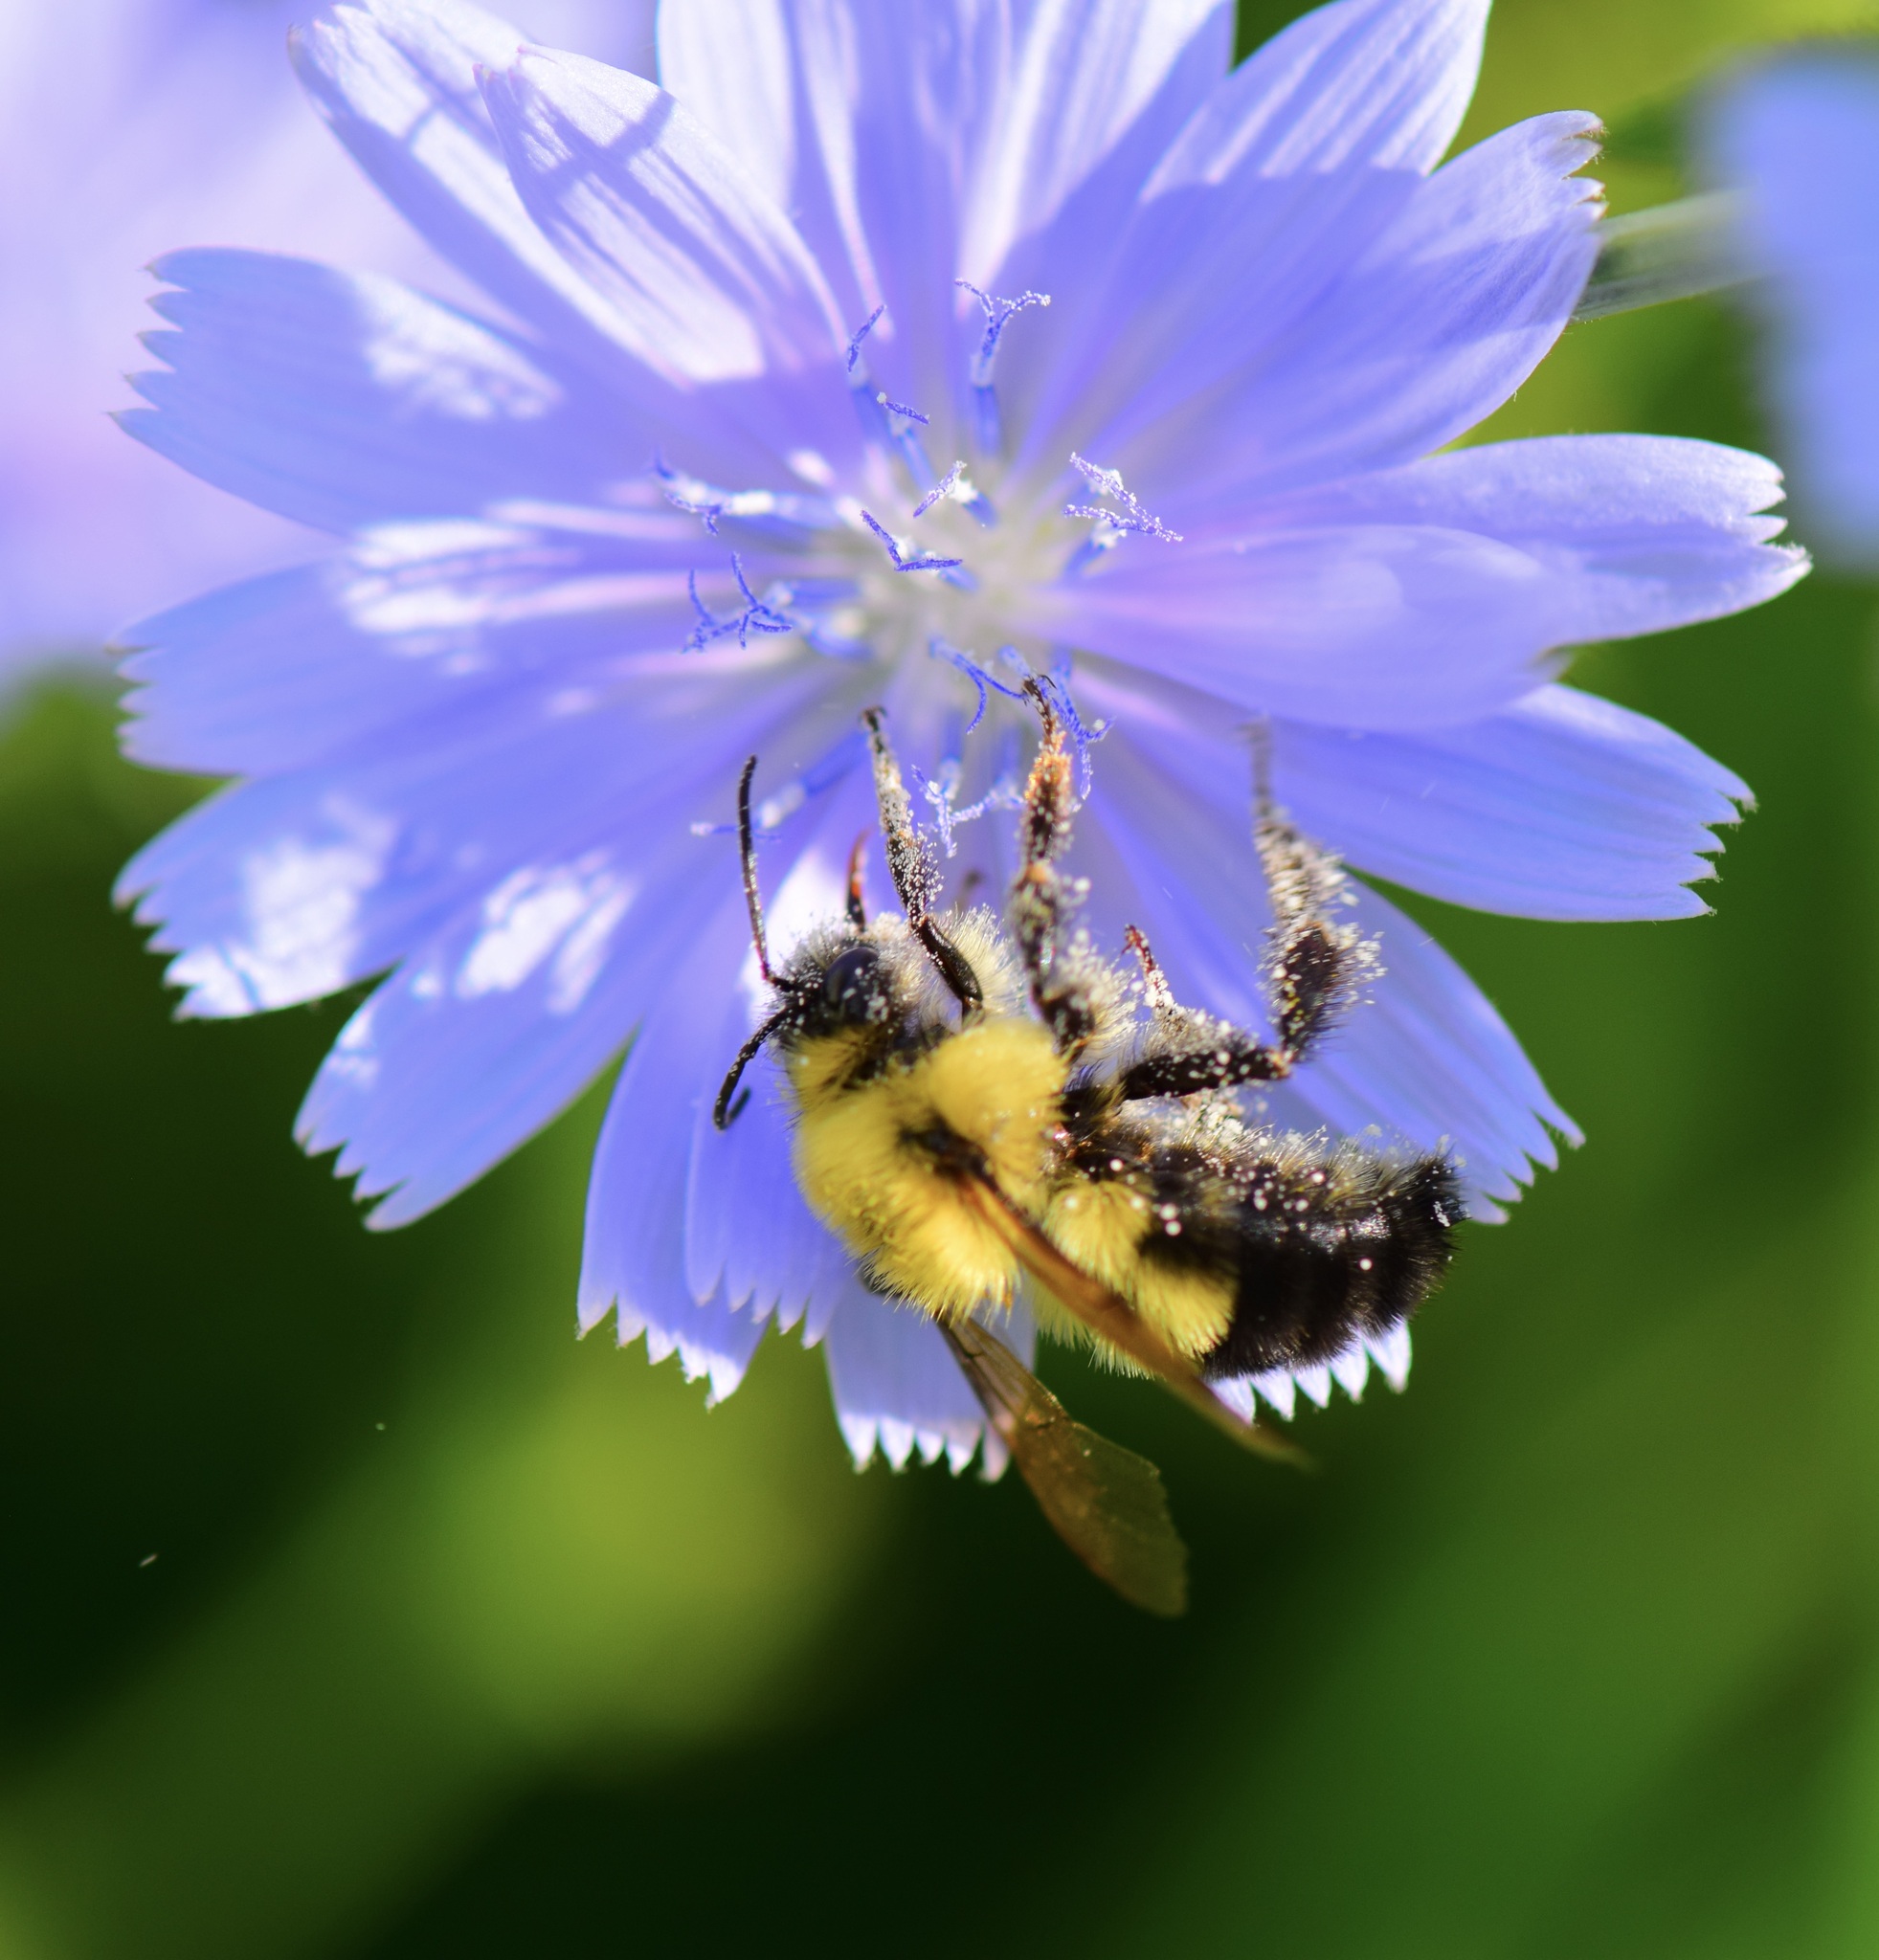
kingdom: Animalia
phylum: Arthropoda
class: Insecta
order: Hymenoptera
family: Apidae
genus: Bombus
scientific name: Bombus bimaculatus
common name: Two-spotted bumble bee
